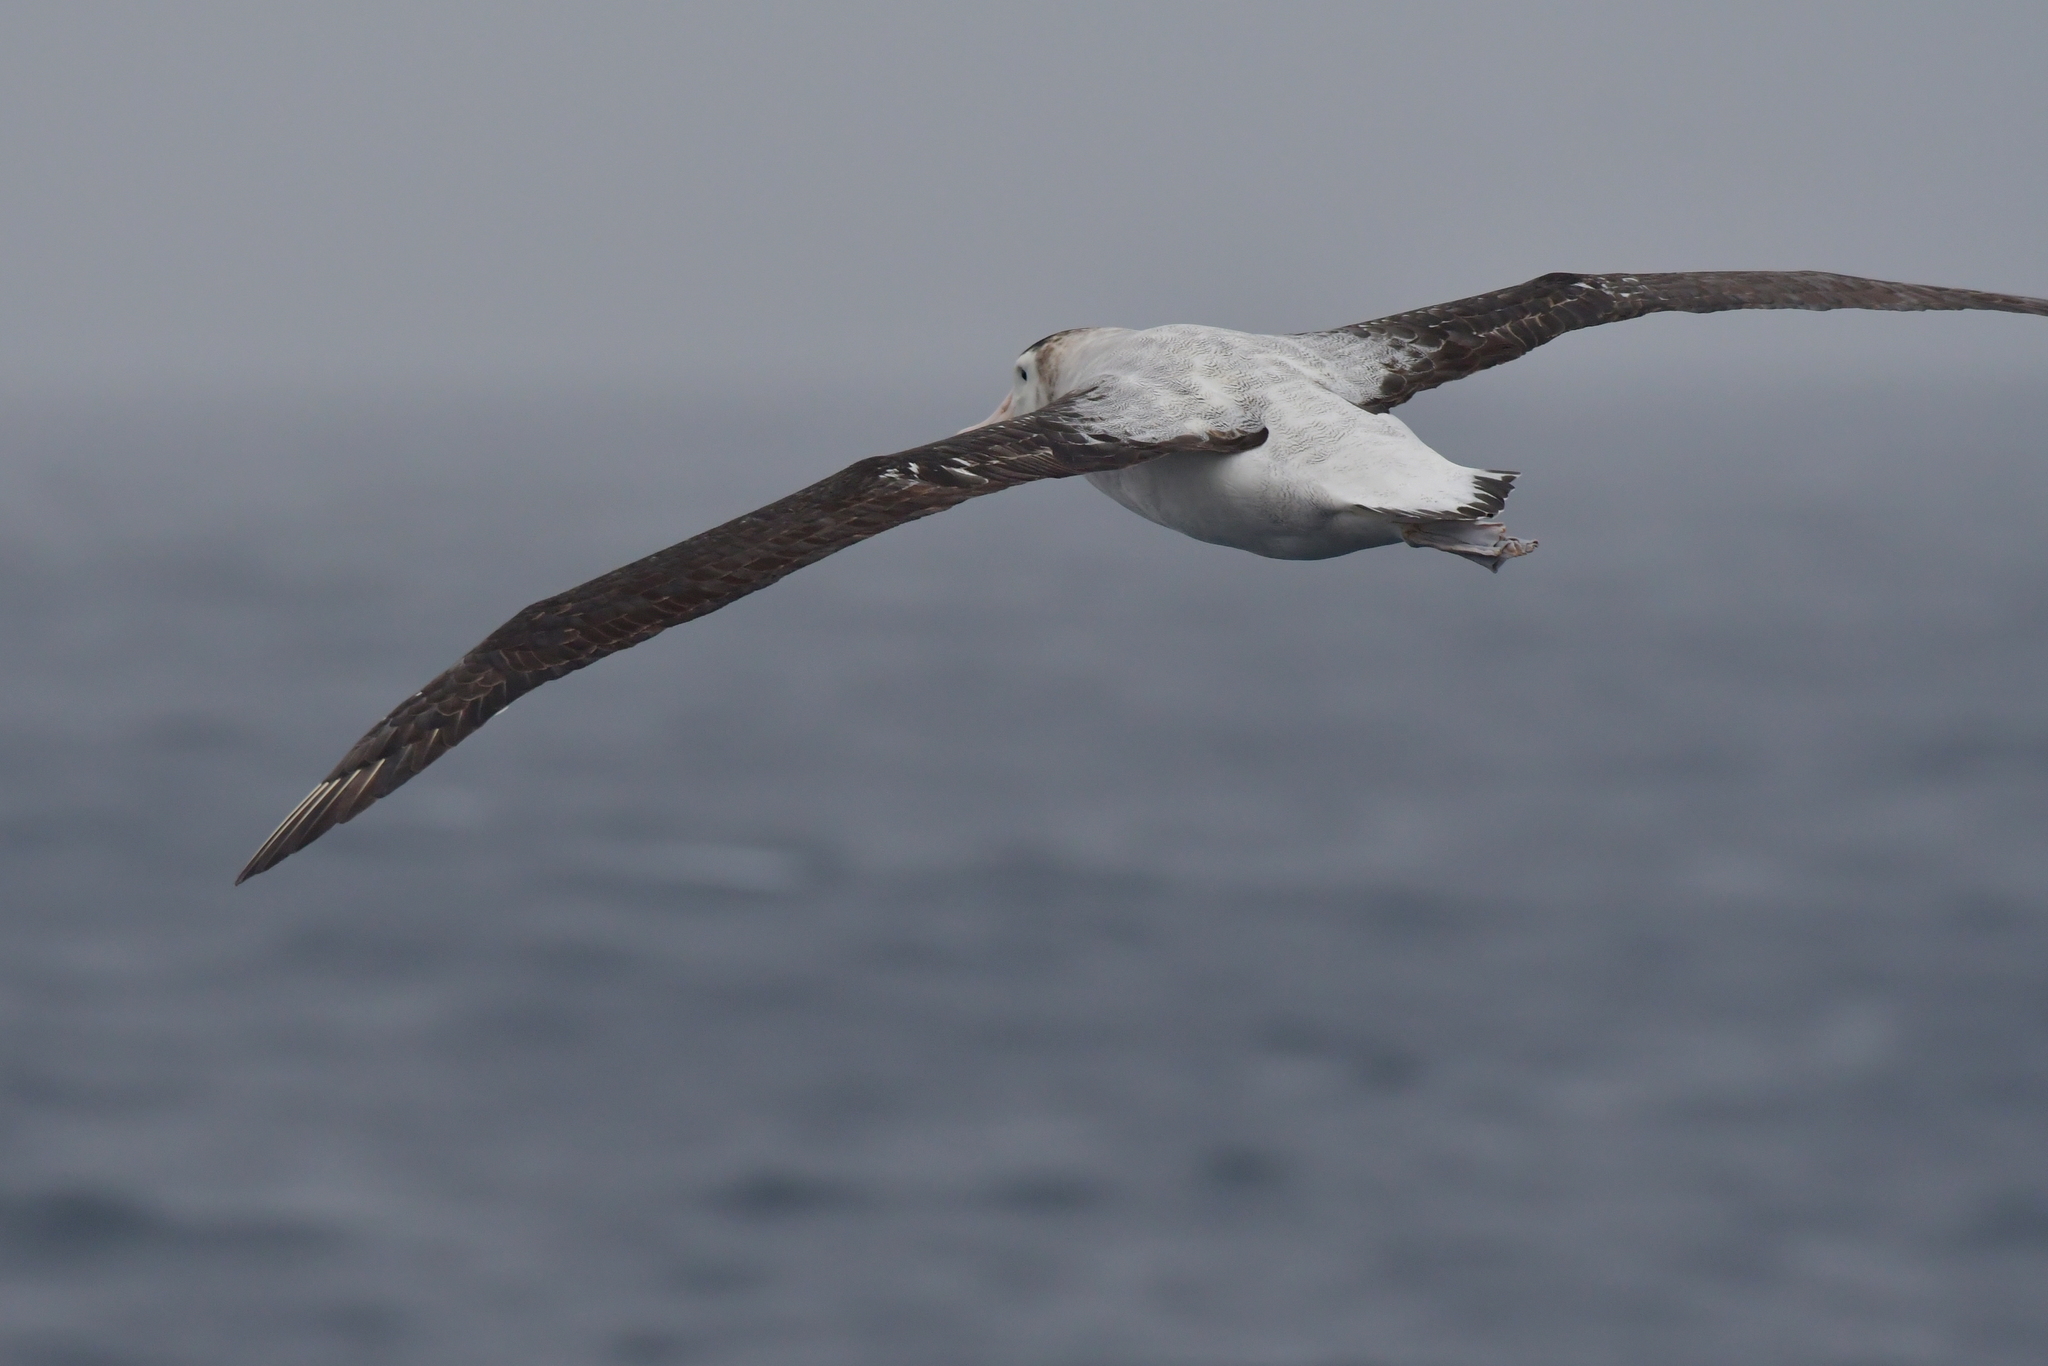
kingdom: Animalia
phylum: Chordata
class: Aves
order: Procellariiformes
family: Diomedeidae
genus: Diomedea
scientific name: Diomedea antipodensis
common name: Antipodean albatross
